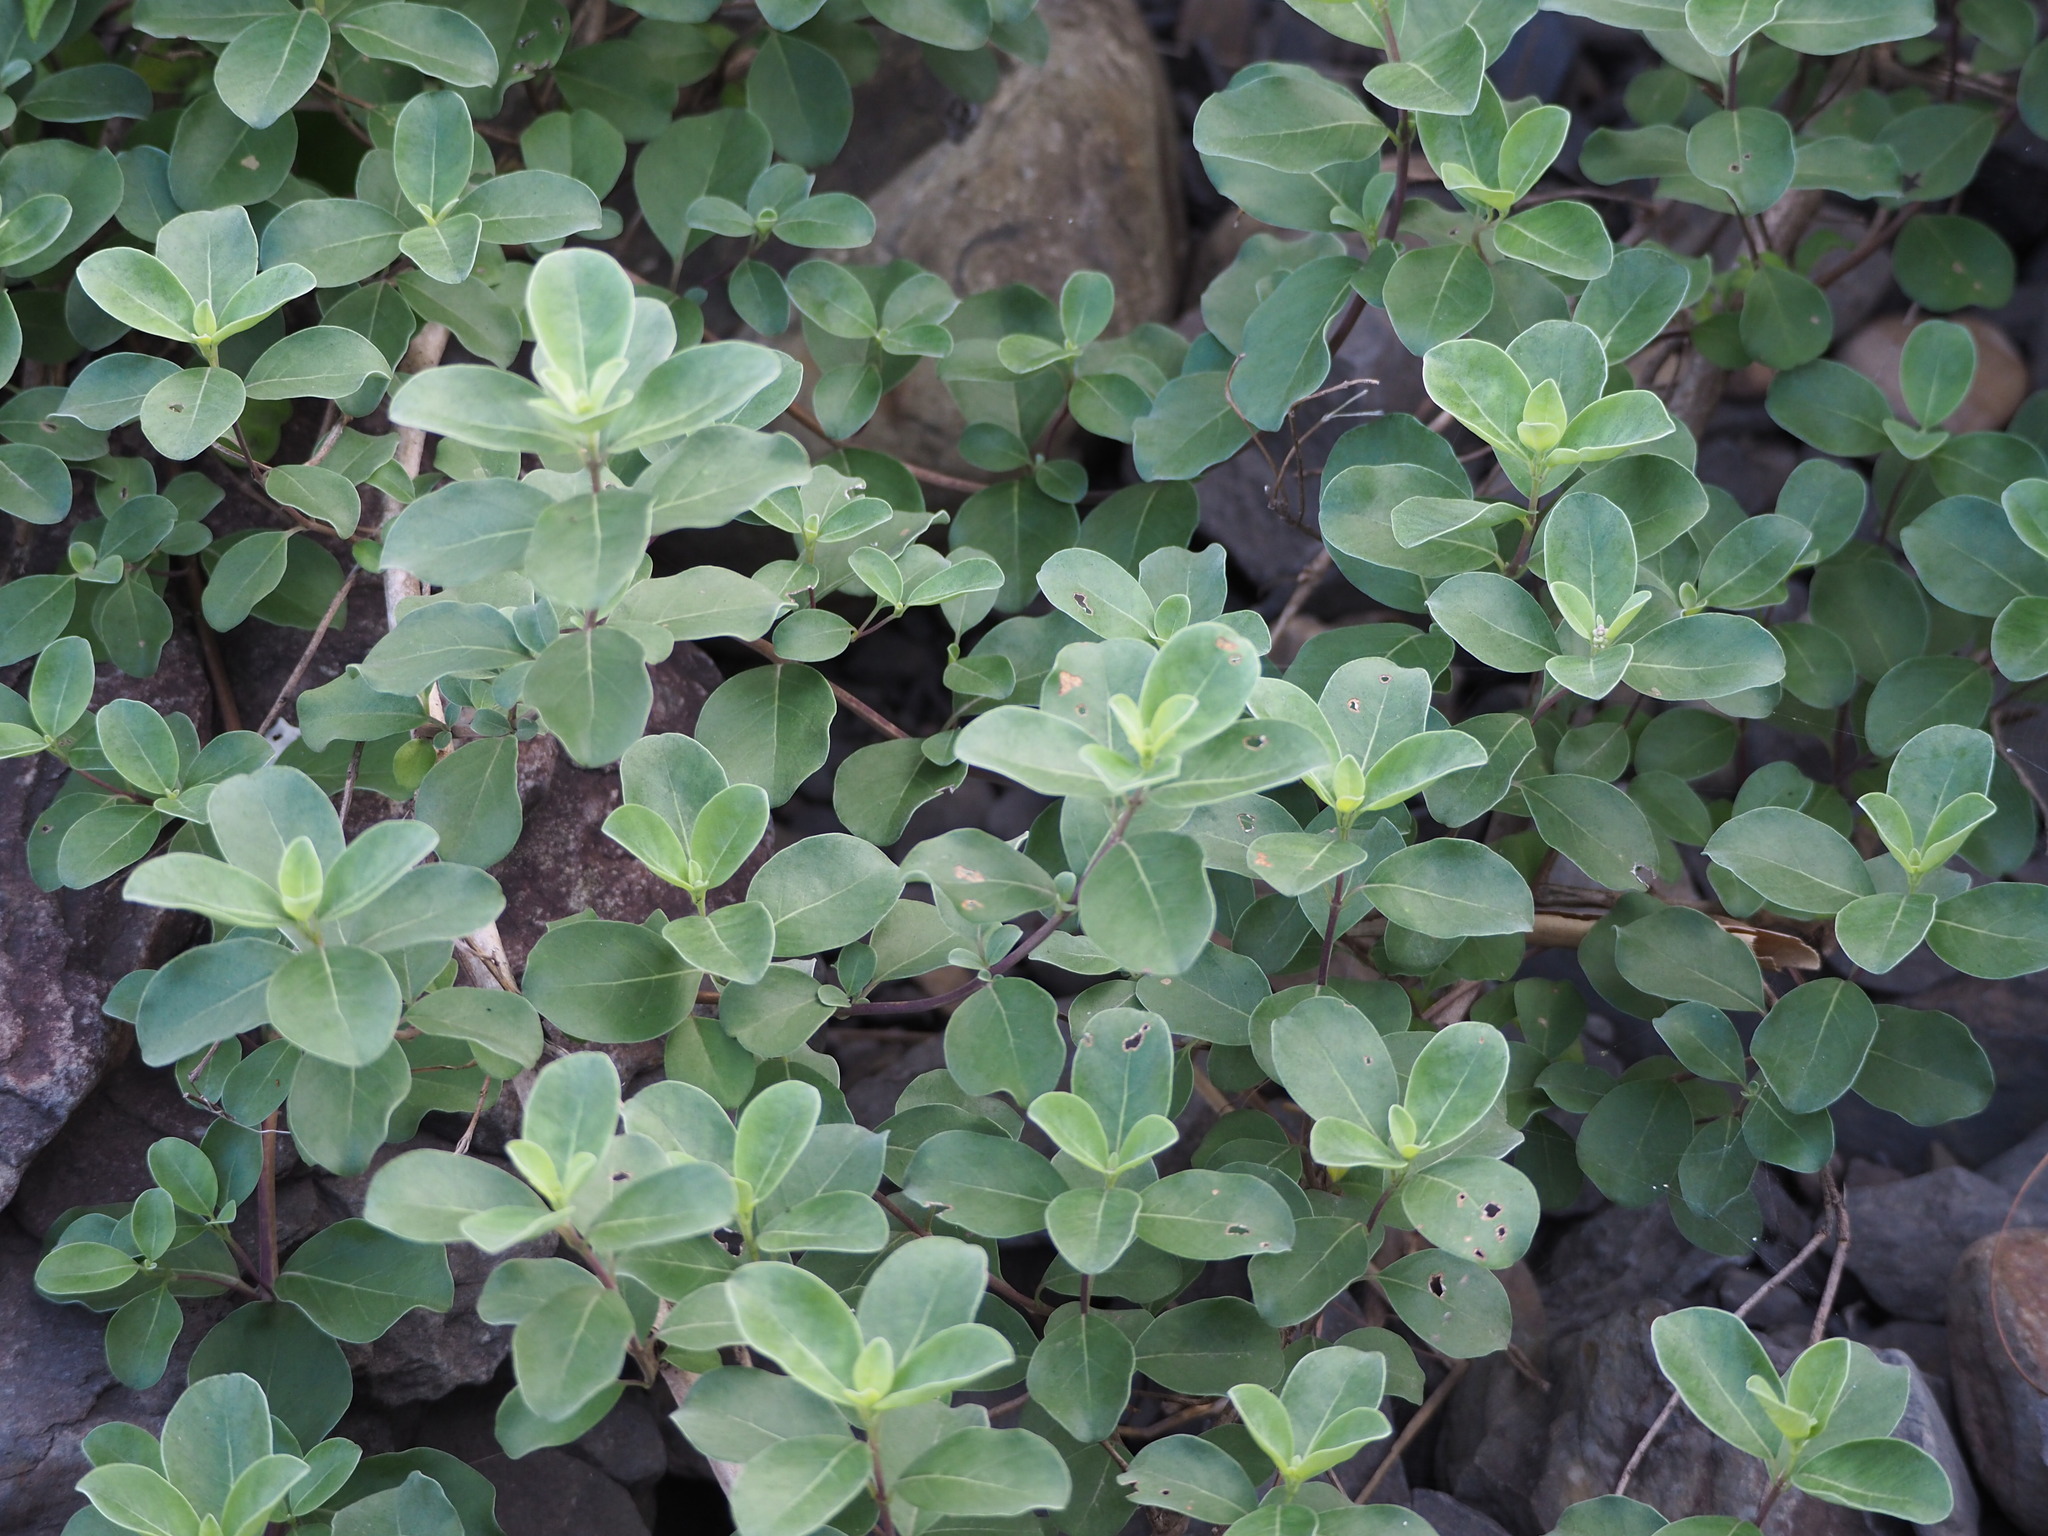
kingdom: Plantae
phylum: Tracheophyta
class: Magnoliopsida
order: Lamiales
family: Lamiaceae
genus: Vitex
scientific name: Vitex rotundifolia
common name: Beach vitex
